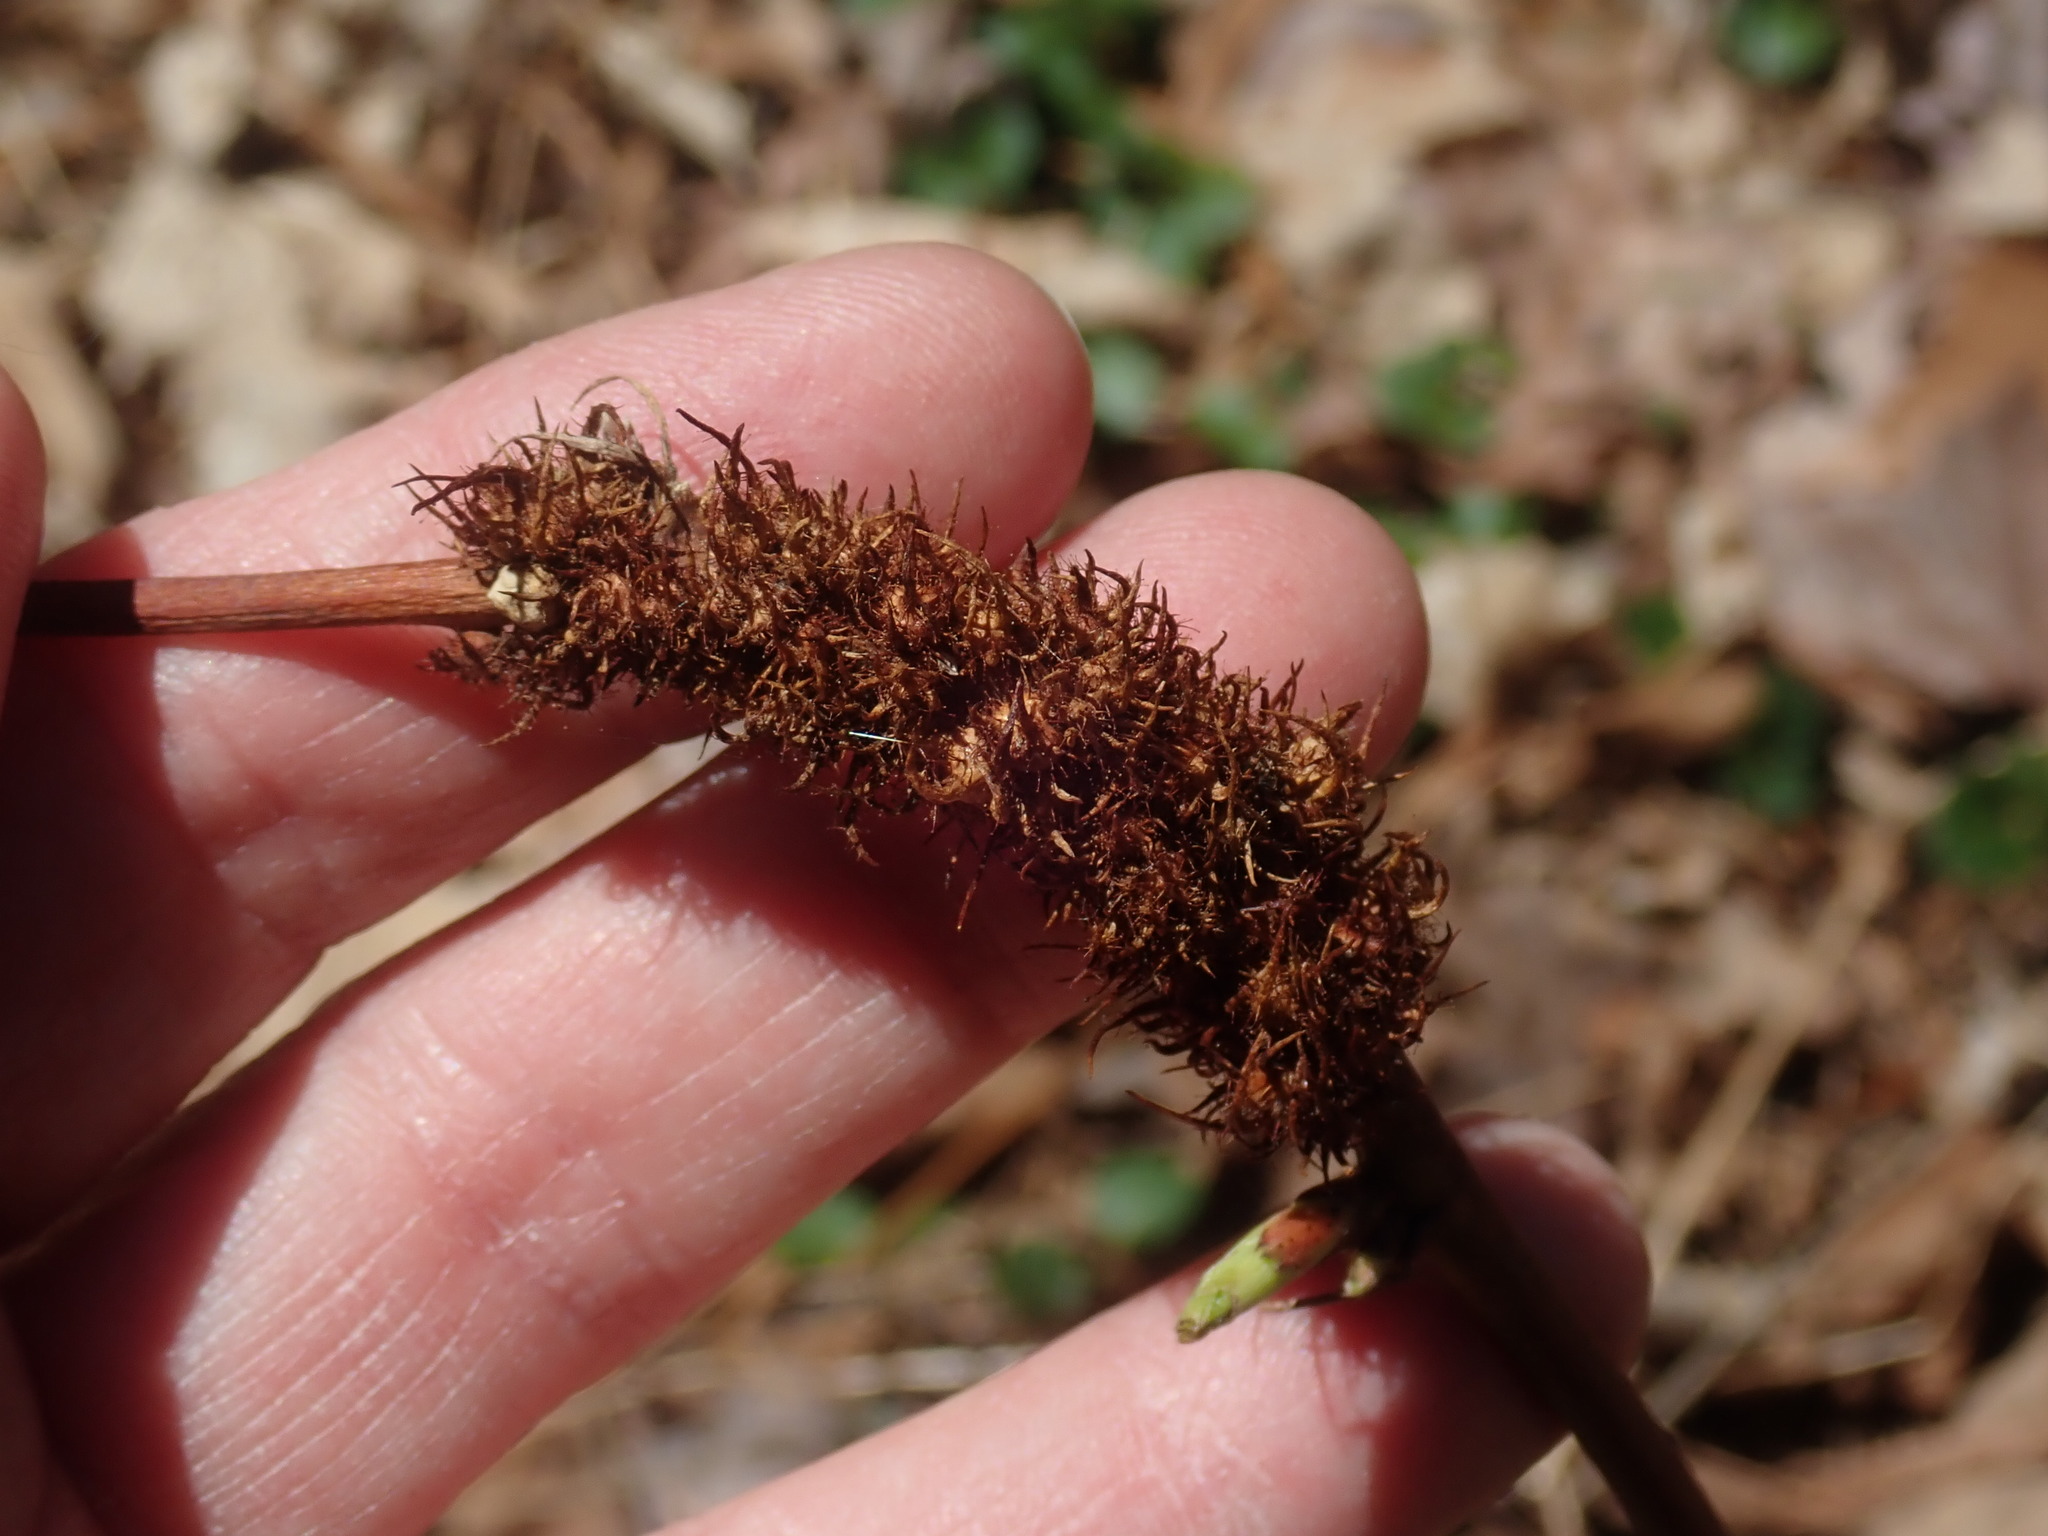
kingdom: Animalia
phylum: Arthropoda
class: Insecta
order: Hymenoptera
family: Cynipidae
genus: Diastrophus
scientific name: Diastrophus
